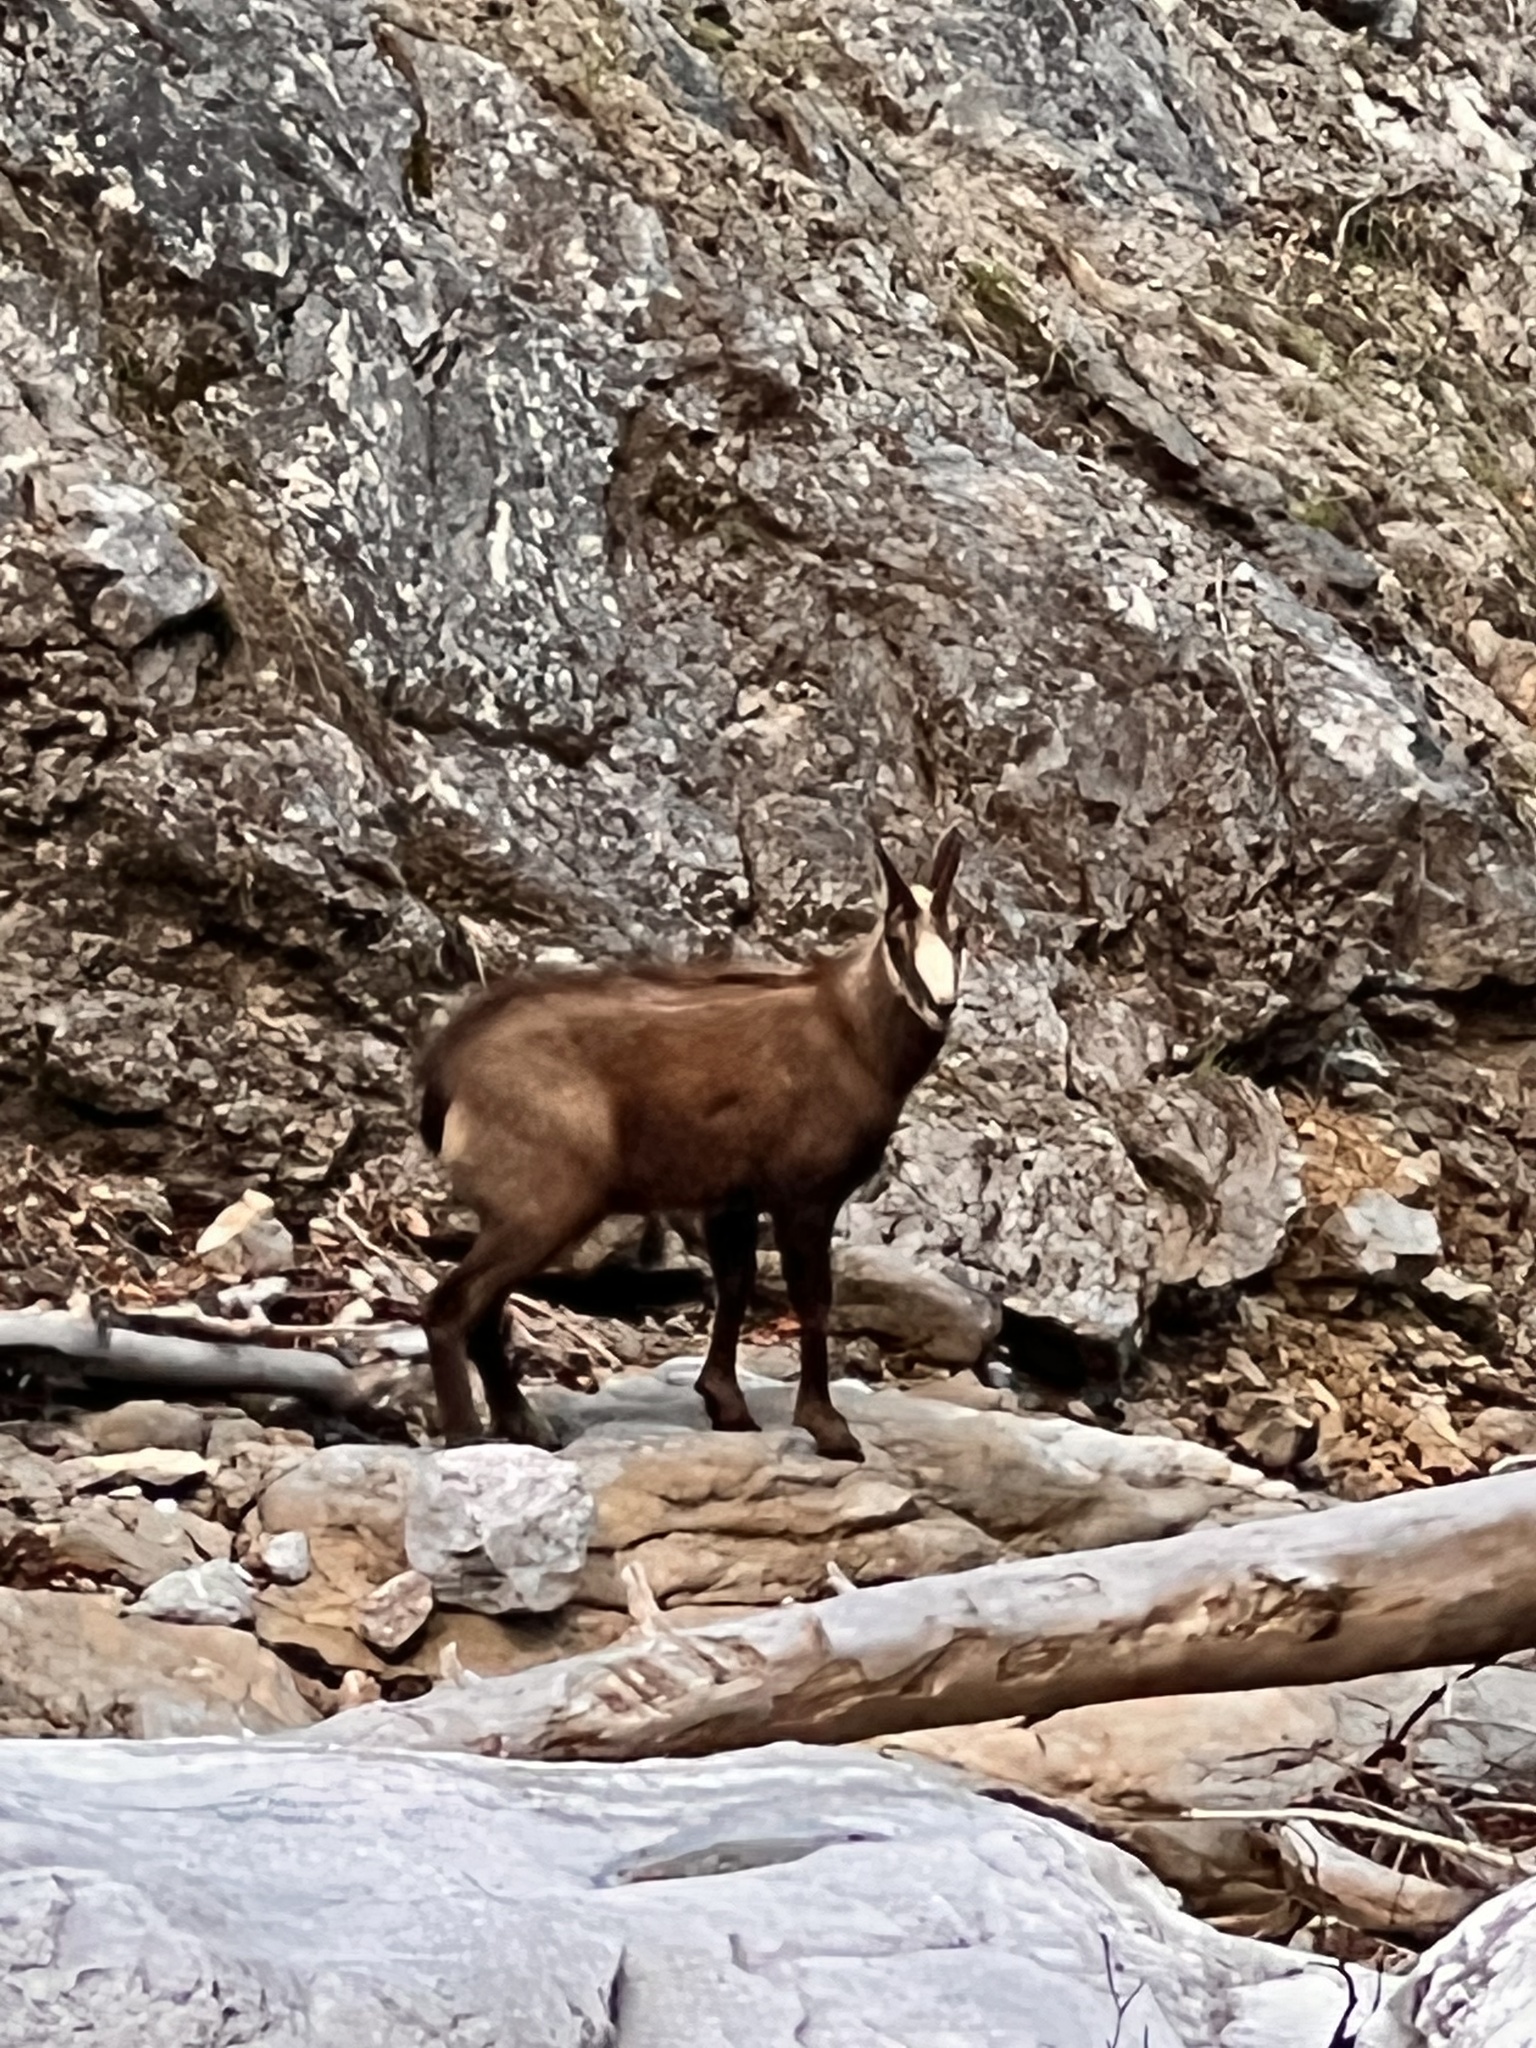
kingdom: Animalia
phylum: Chordata
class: Mammalia
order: Artiodactyla
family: Bovidae
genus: Rupicapra
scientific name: Rupicapra rupicapra
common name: Chamois
